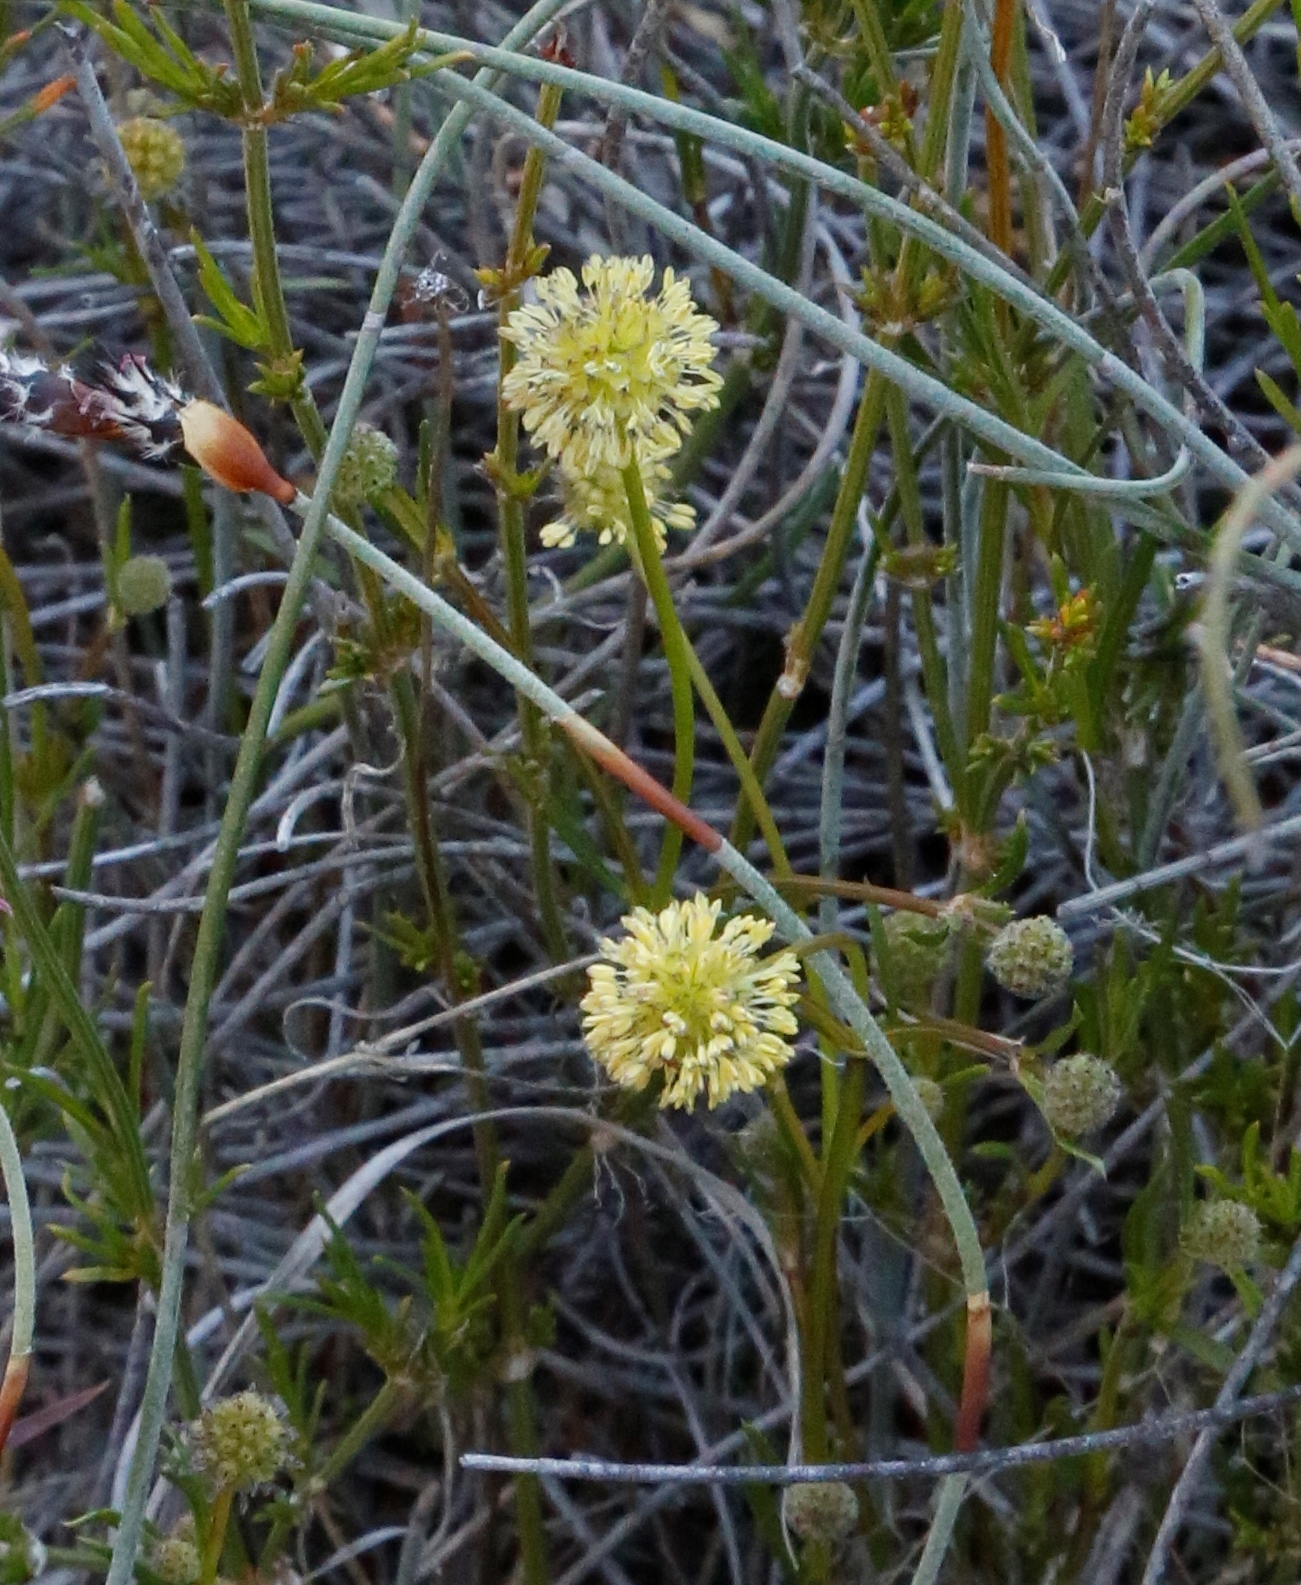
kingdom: Plantae
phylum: Tracheophyta
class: Magnoliopsida
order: Gentianales
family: Rubiaceae
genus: Opercularia
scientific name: Opercularia vaginata
